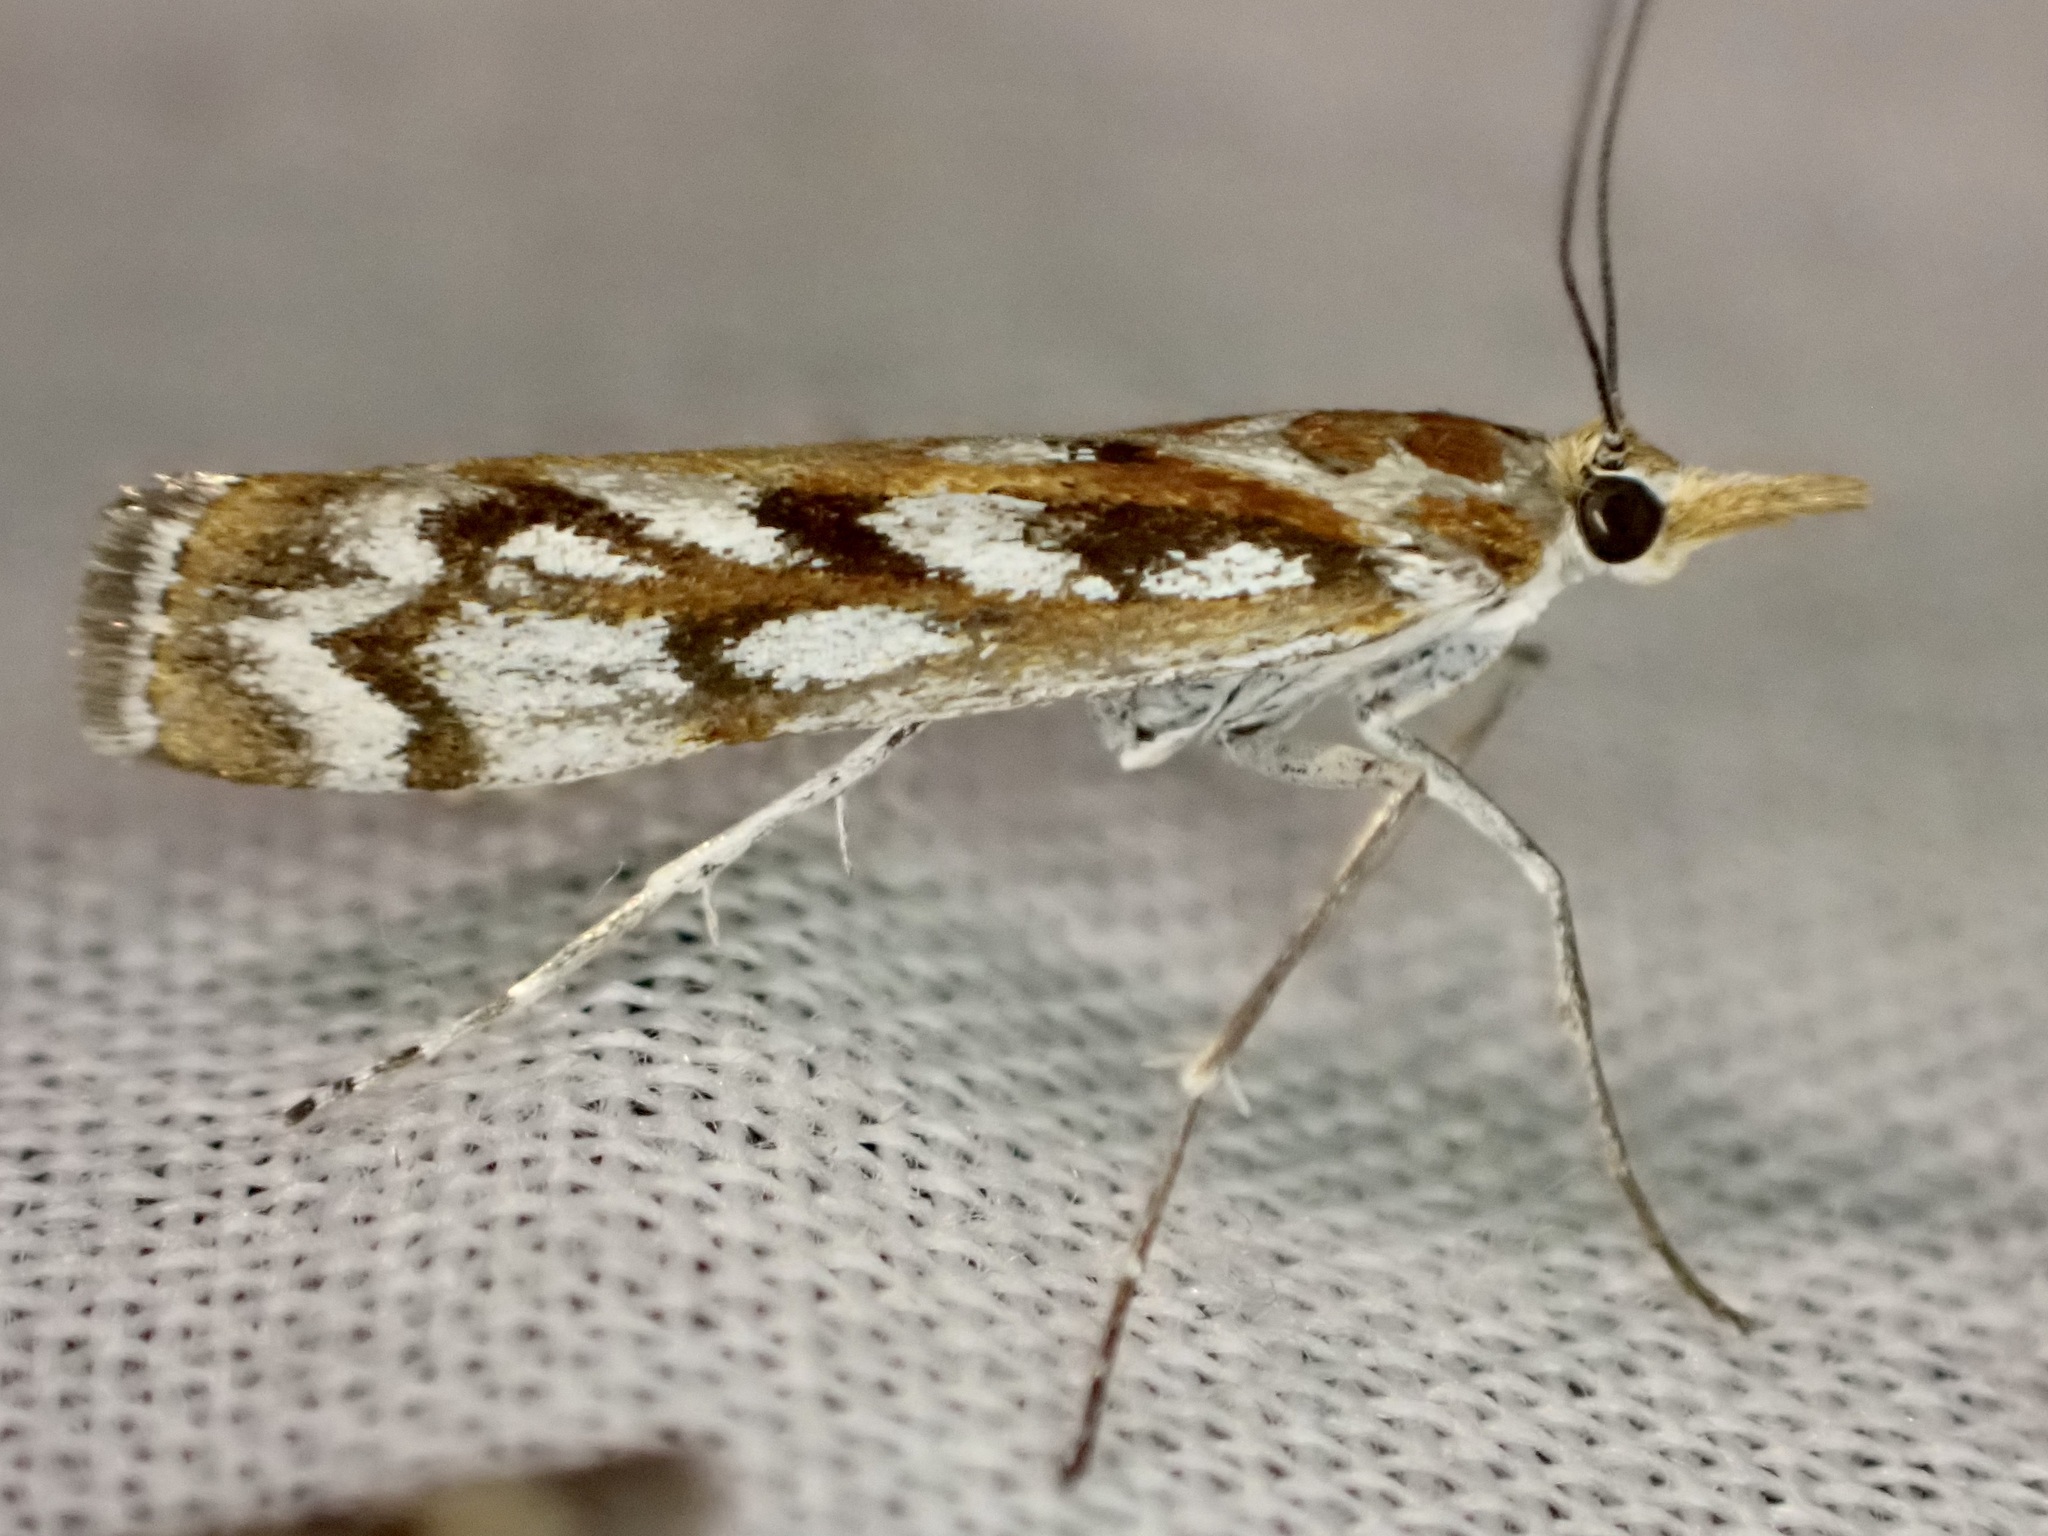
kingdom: Animalia
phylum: Arthropoda
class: Insecta
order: Lepidoptera
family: Crambidae
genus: Orocrambus
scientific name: Orocrambus xanthogrammus
